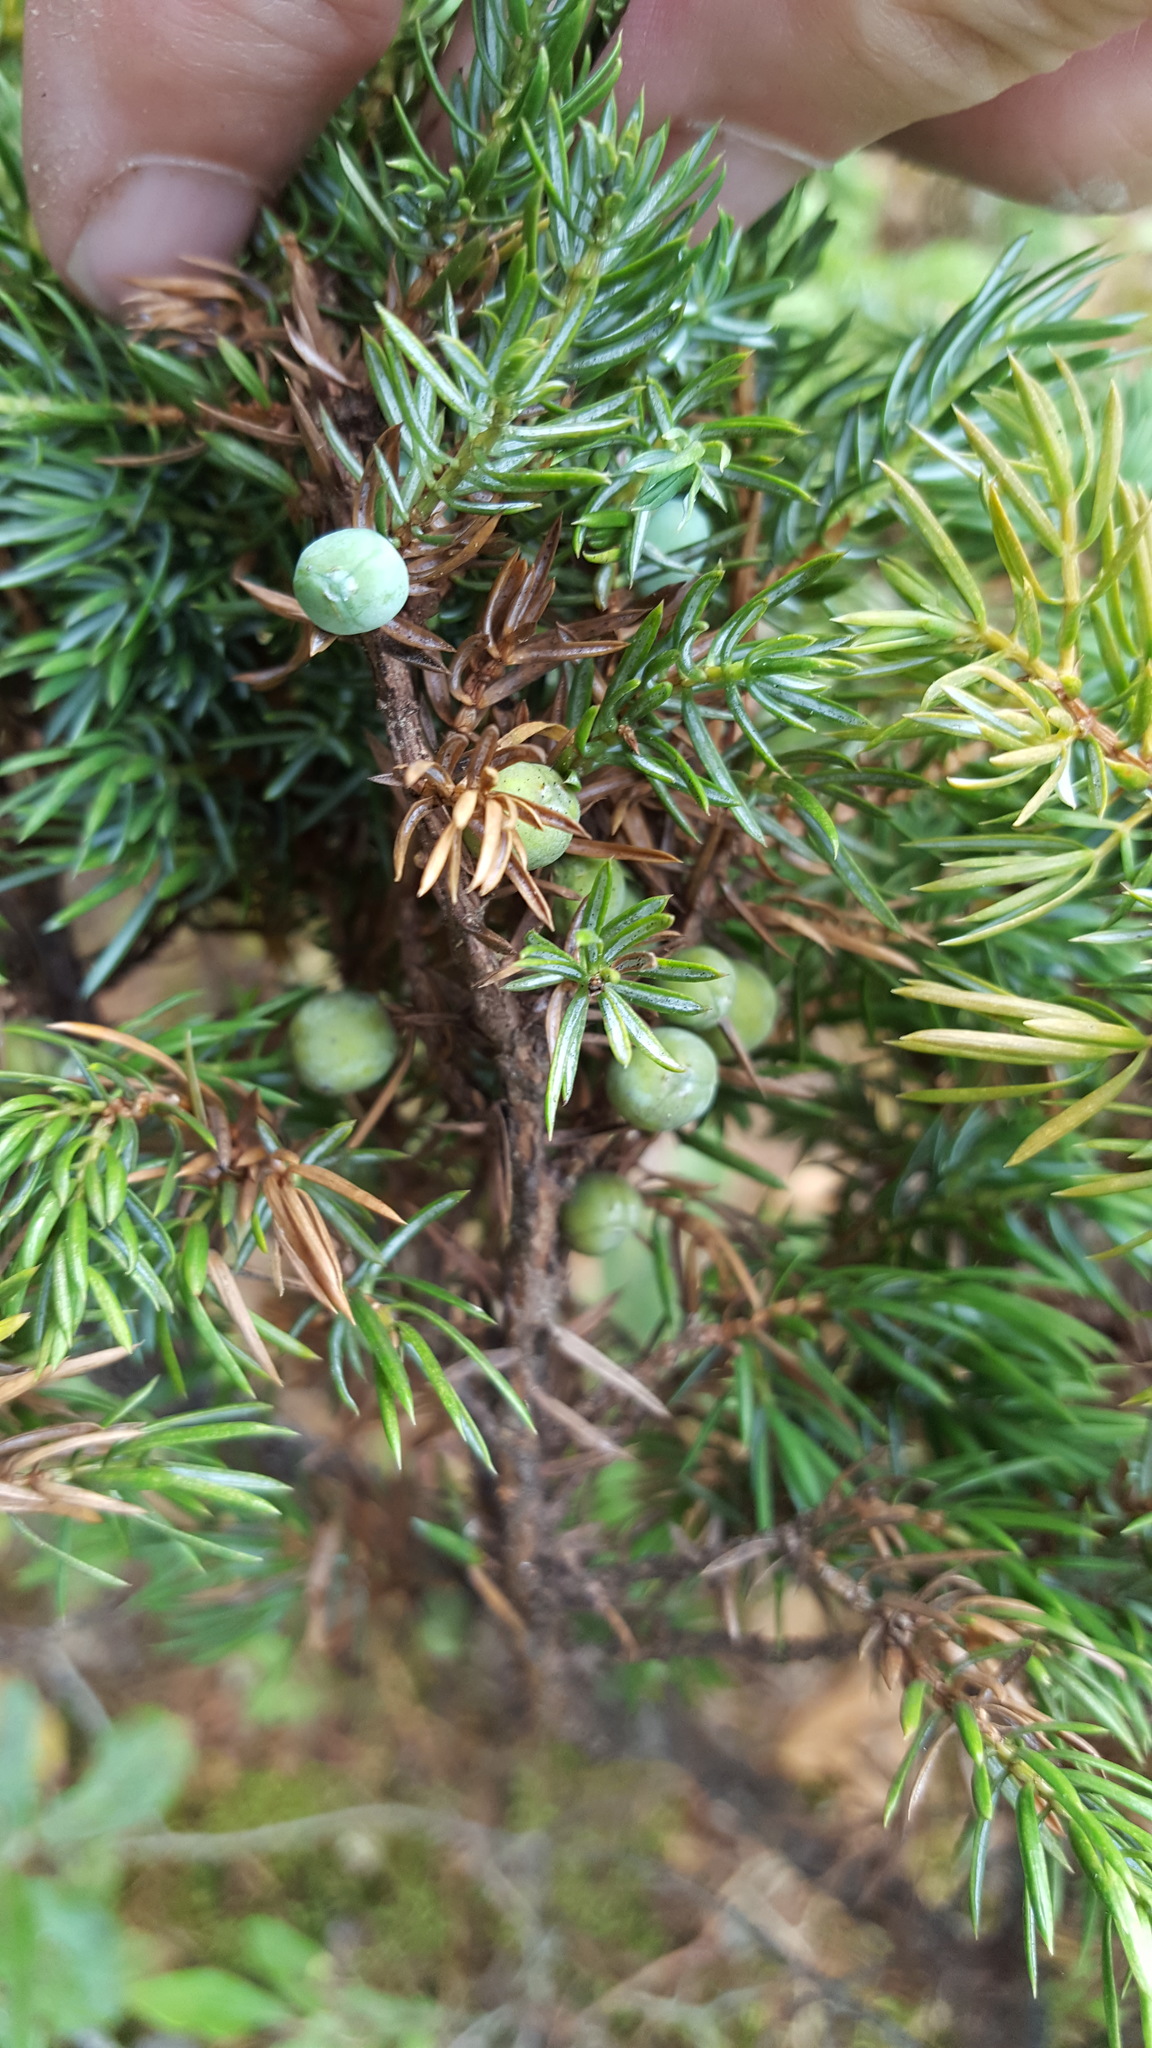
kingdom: Plantae
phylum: Tracheophyta
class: Pinopsida
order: Pinales
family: Cupressaceae
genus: Juniperus
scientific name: Juniperus communis
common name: Common juniper
